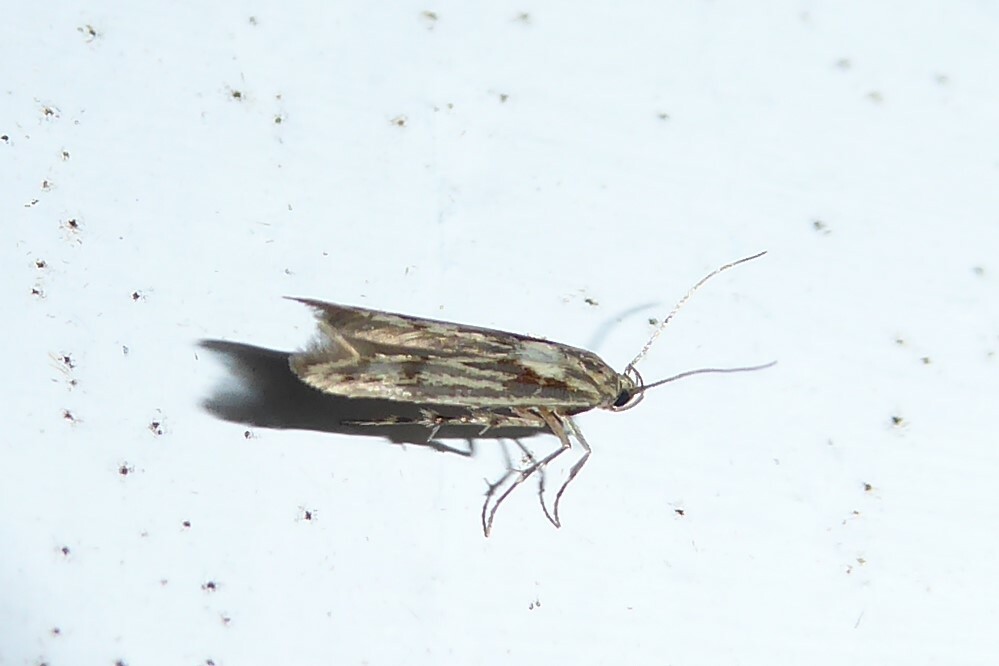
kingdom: Animalia
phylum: Arthropoda
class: Insecta
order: Lepidoptera
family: Stathmopodidae
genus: Stathmopoda
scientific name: Stathmopoda plumbiflua
